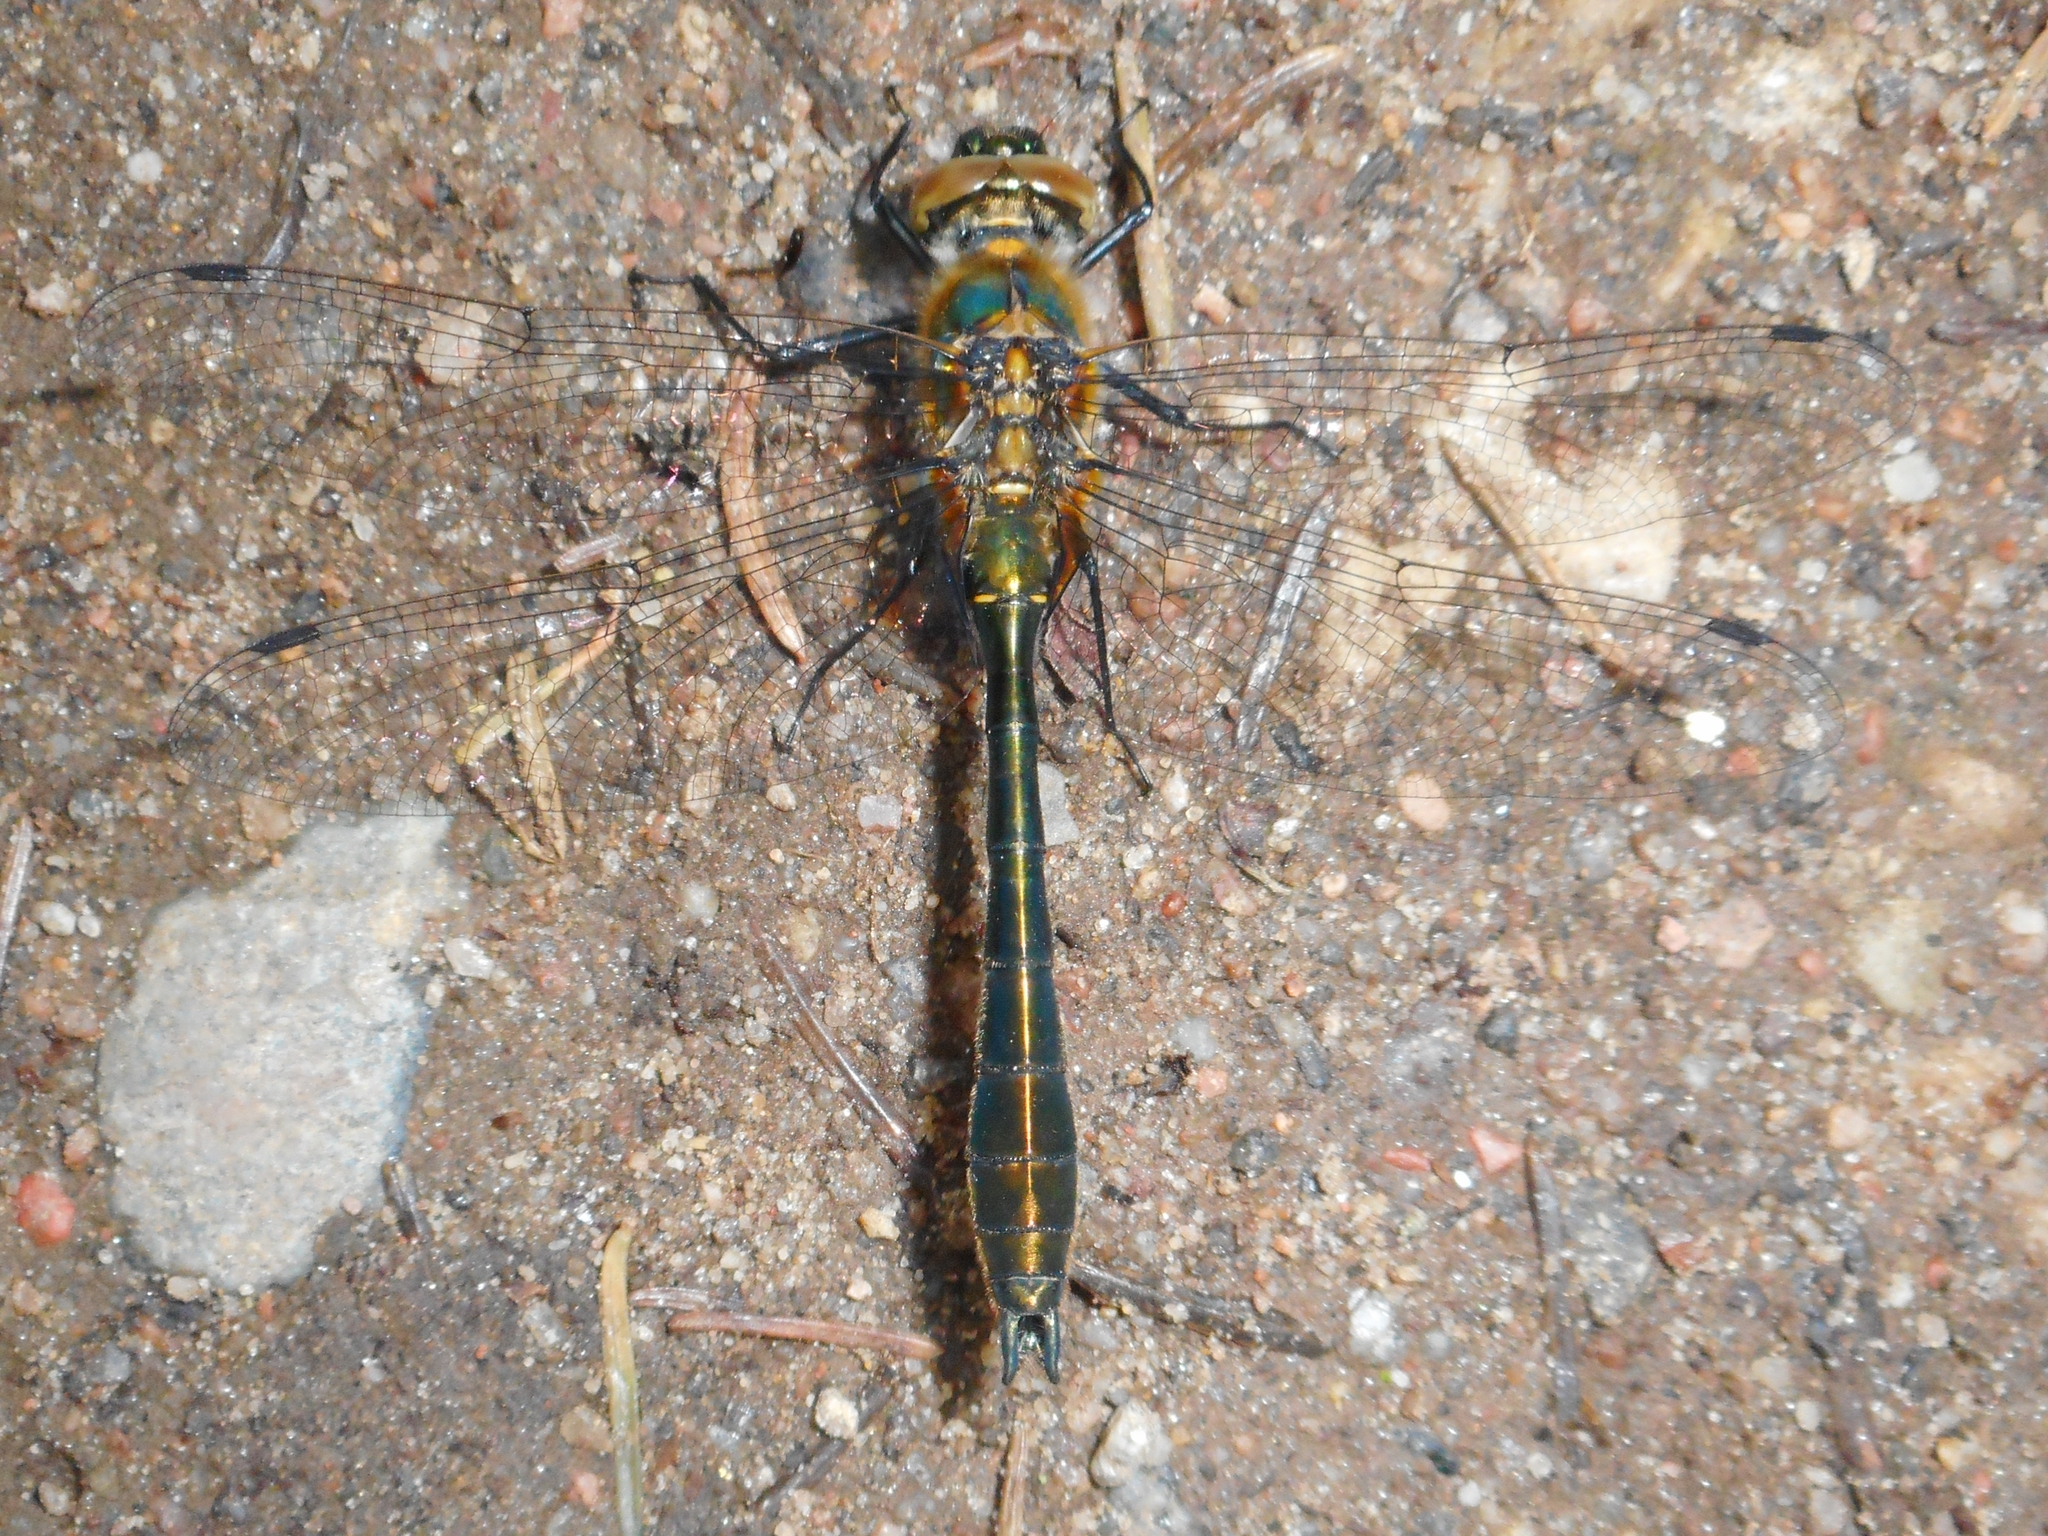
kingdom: Animalia
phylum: Arthropoda
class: Insecta
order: Odonata
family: Corduliidae
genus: Cordulia
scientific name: Cordulia aenea
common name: Downy emerald
